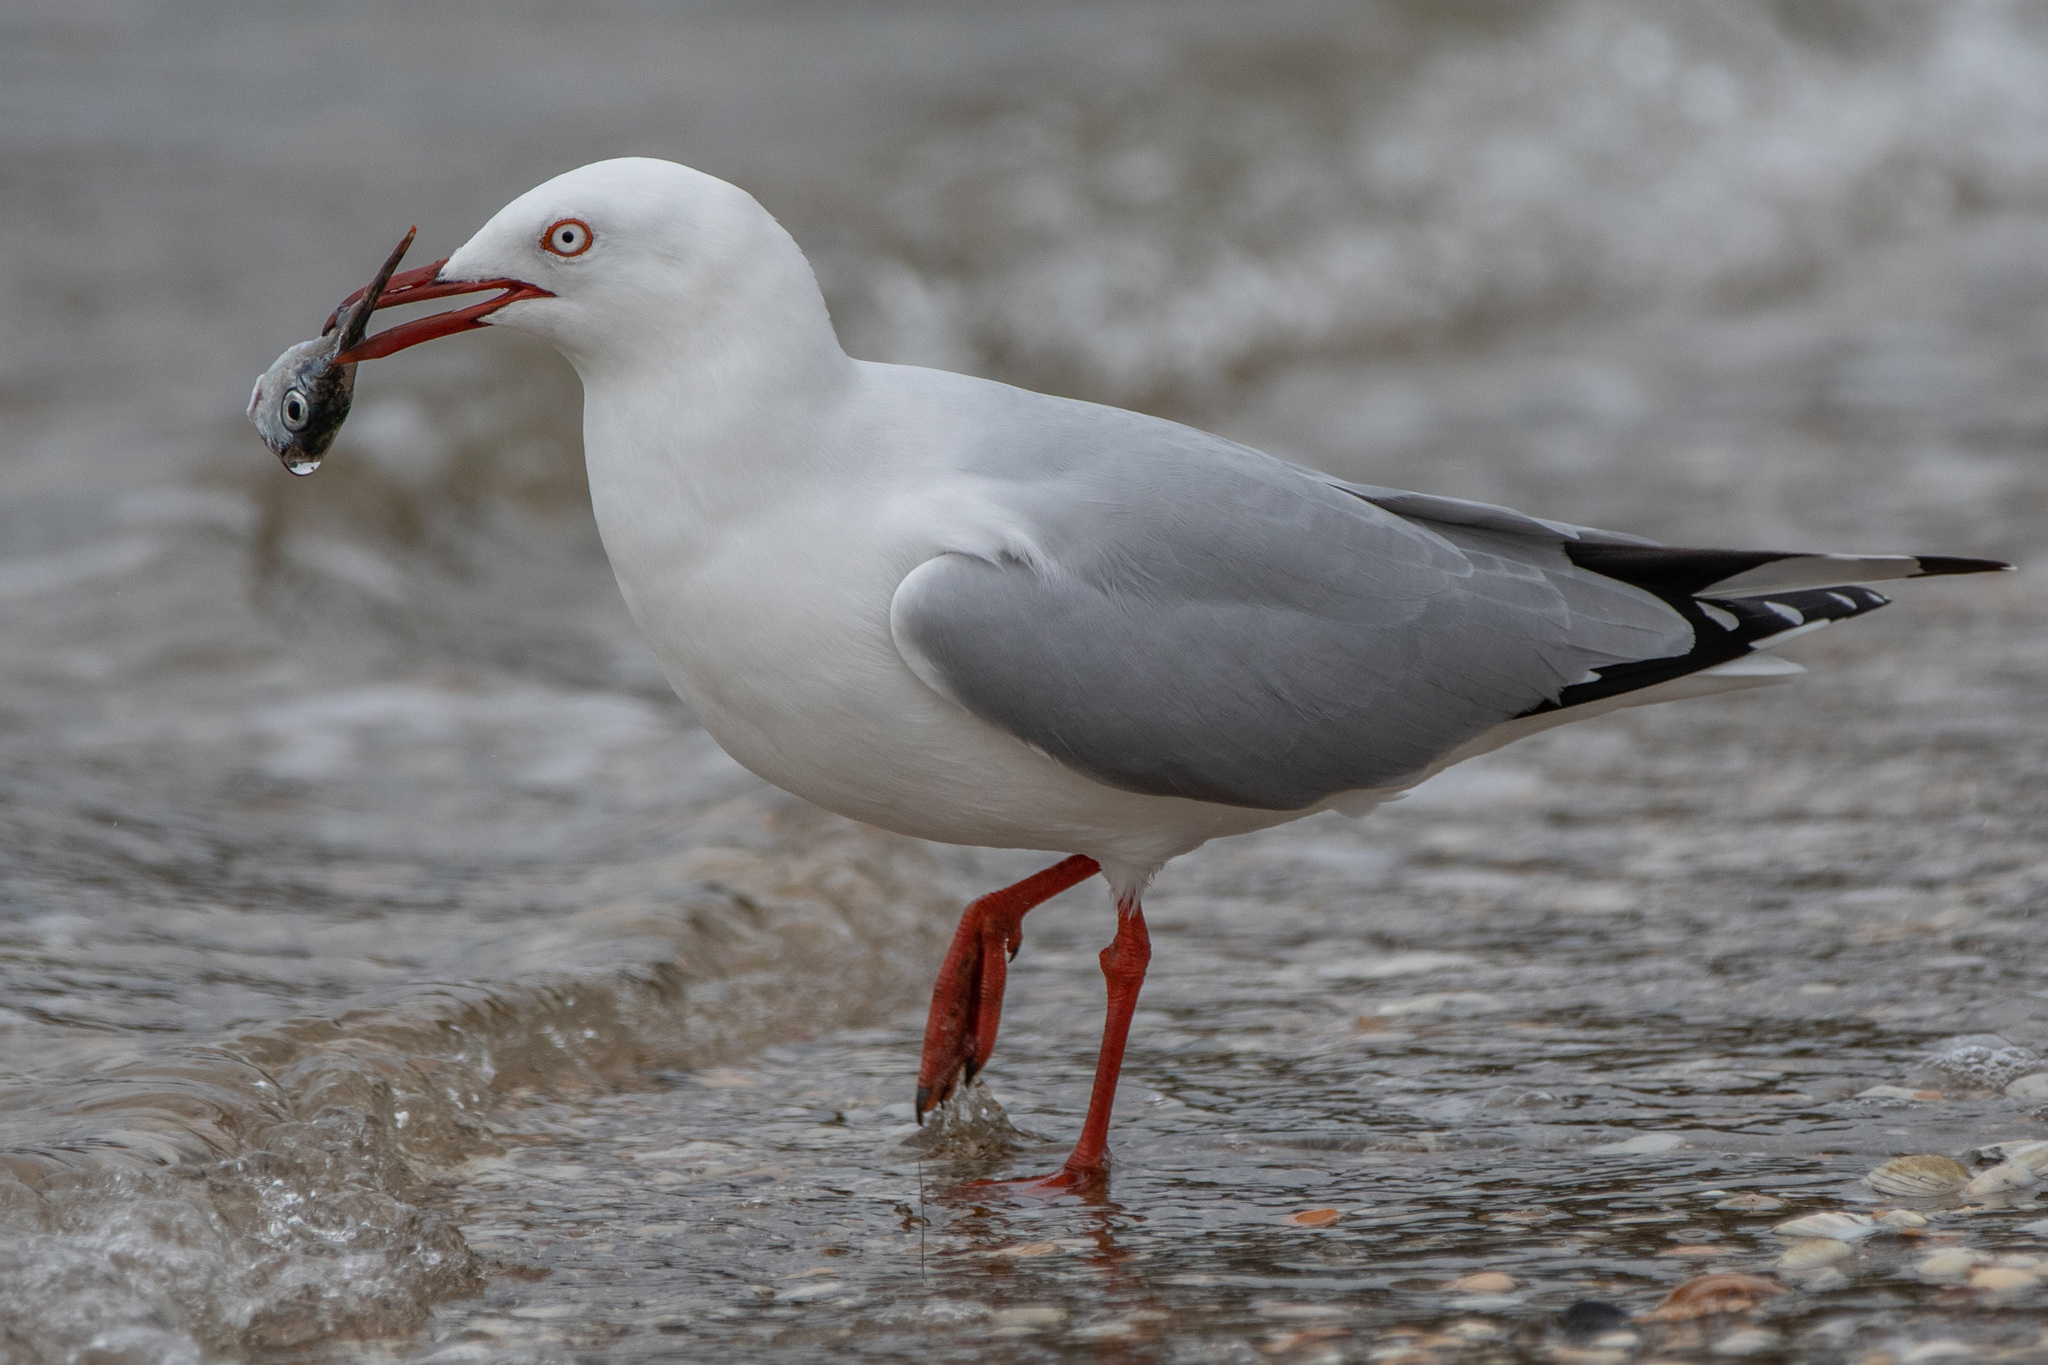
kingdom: Animalia
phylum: Chordata
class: Aves
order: Charadriiformes
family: Laridae
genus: Chroicocephalus
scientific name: Chroicocephalus novaehollandiae
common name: Silver gull
